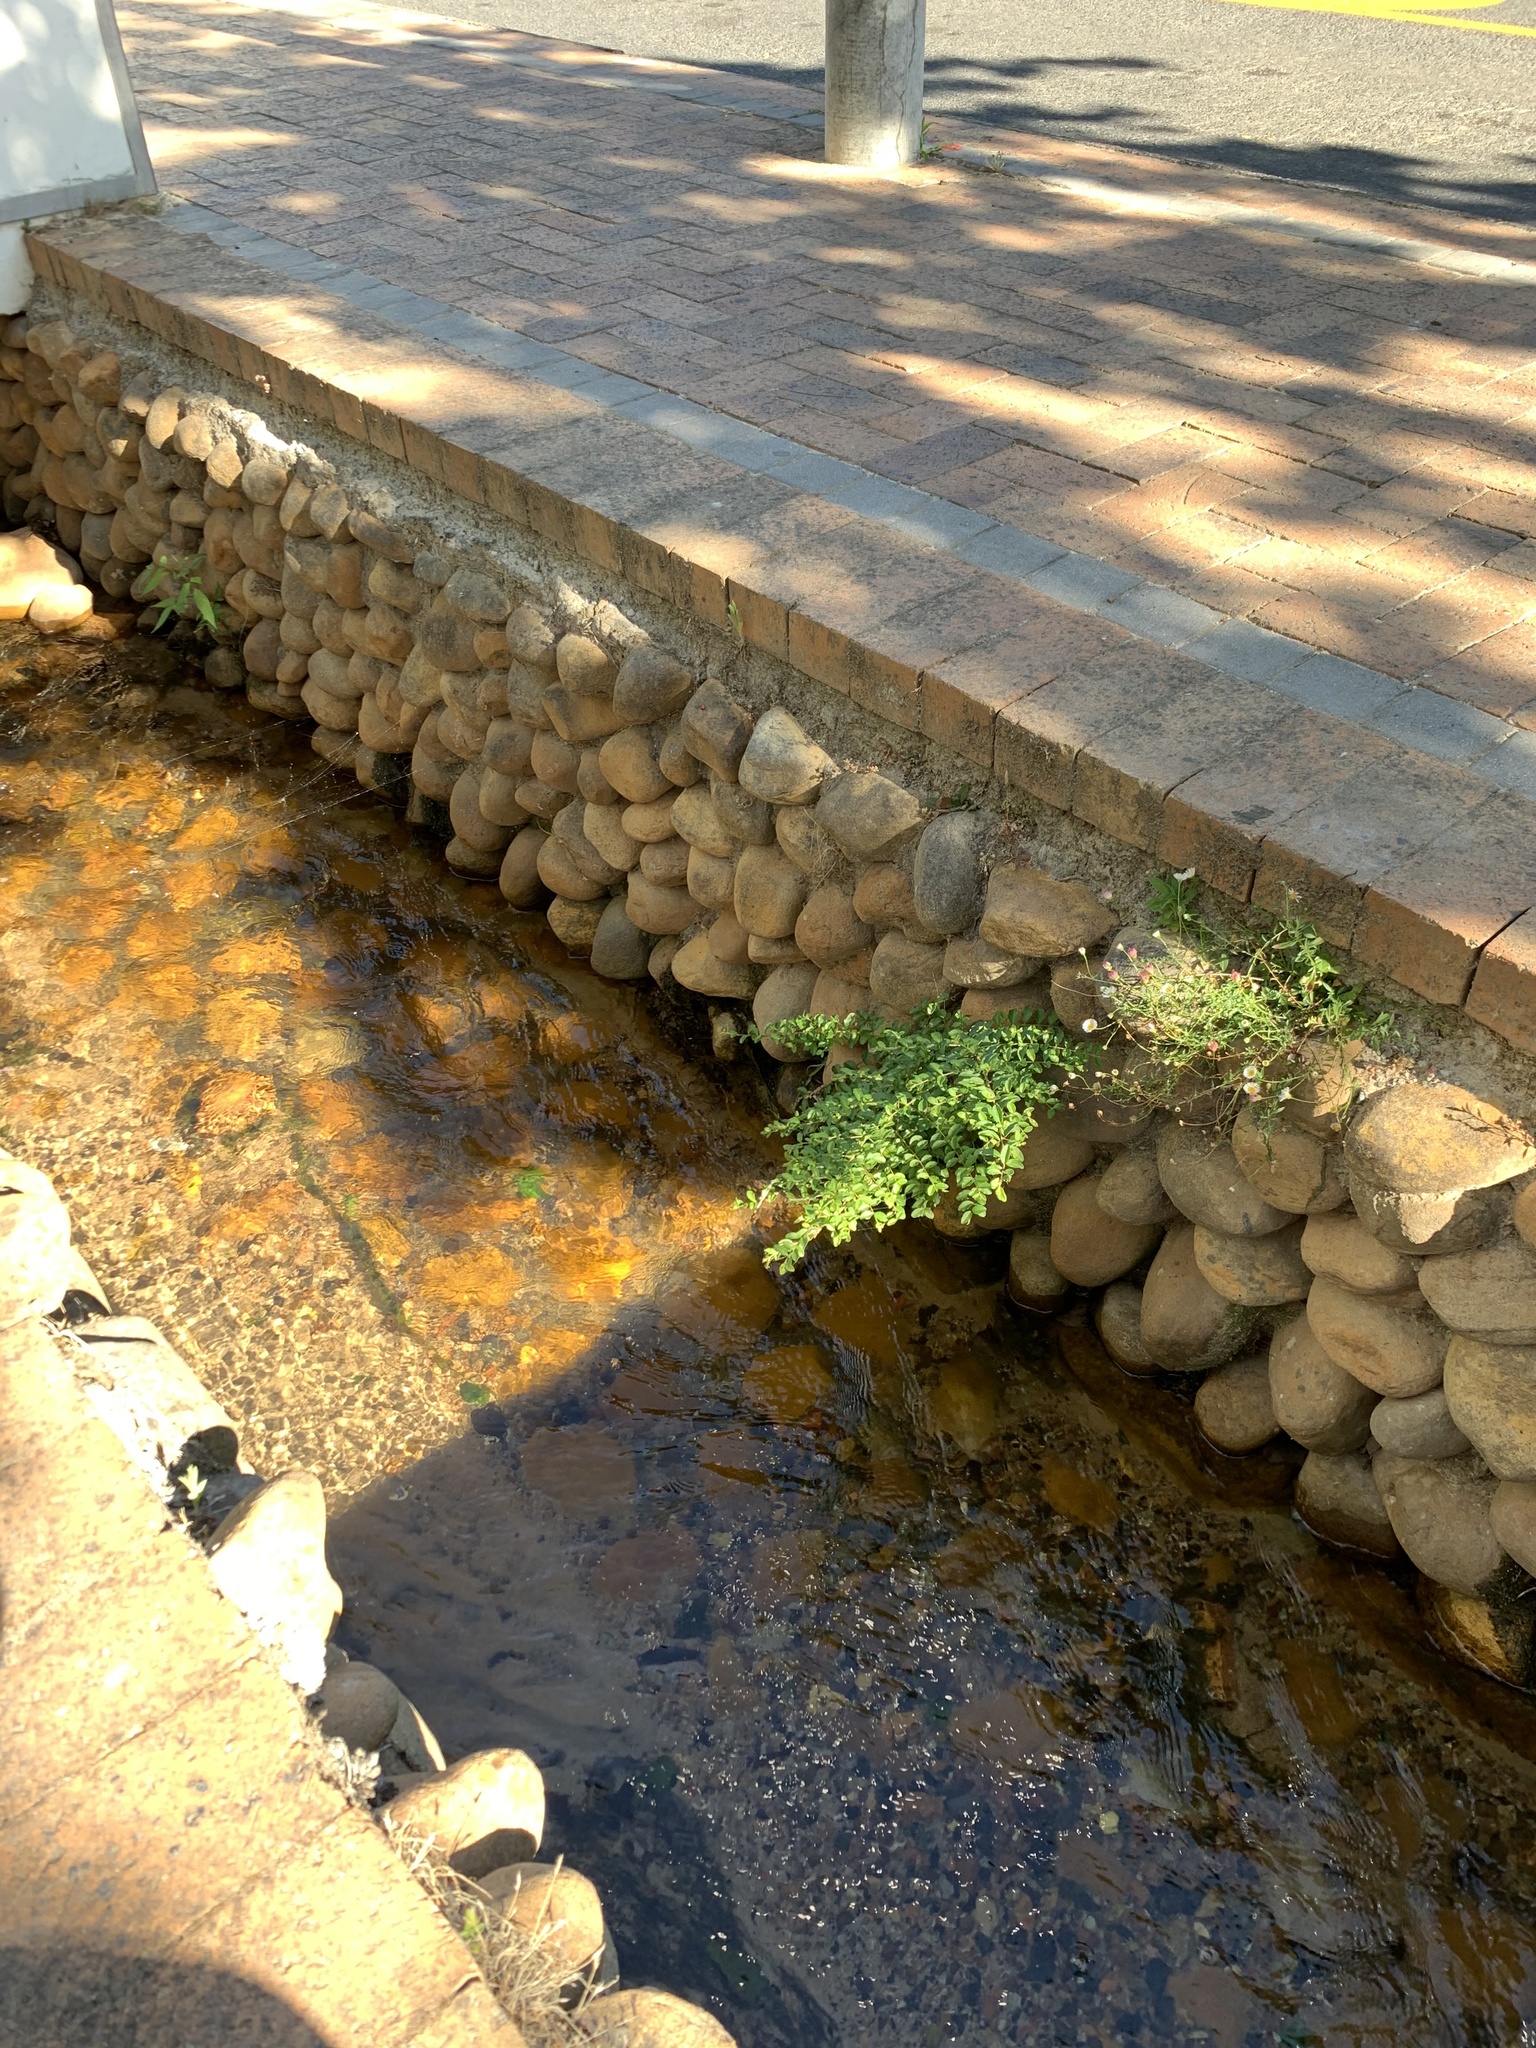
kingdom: Plantae
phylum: Tracheophyta
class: Magnoliopsida
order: Lamiales
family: Oleaceae
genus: Ligustrum
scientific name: Ligustrum sinense
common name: Chinese privet
